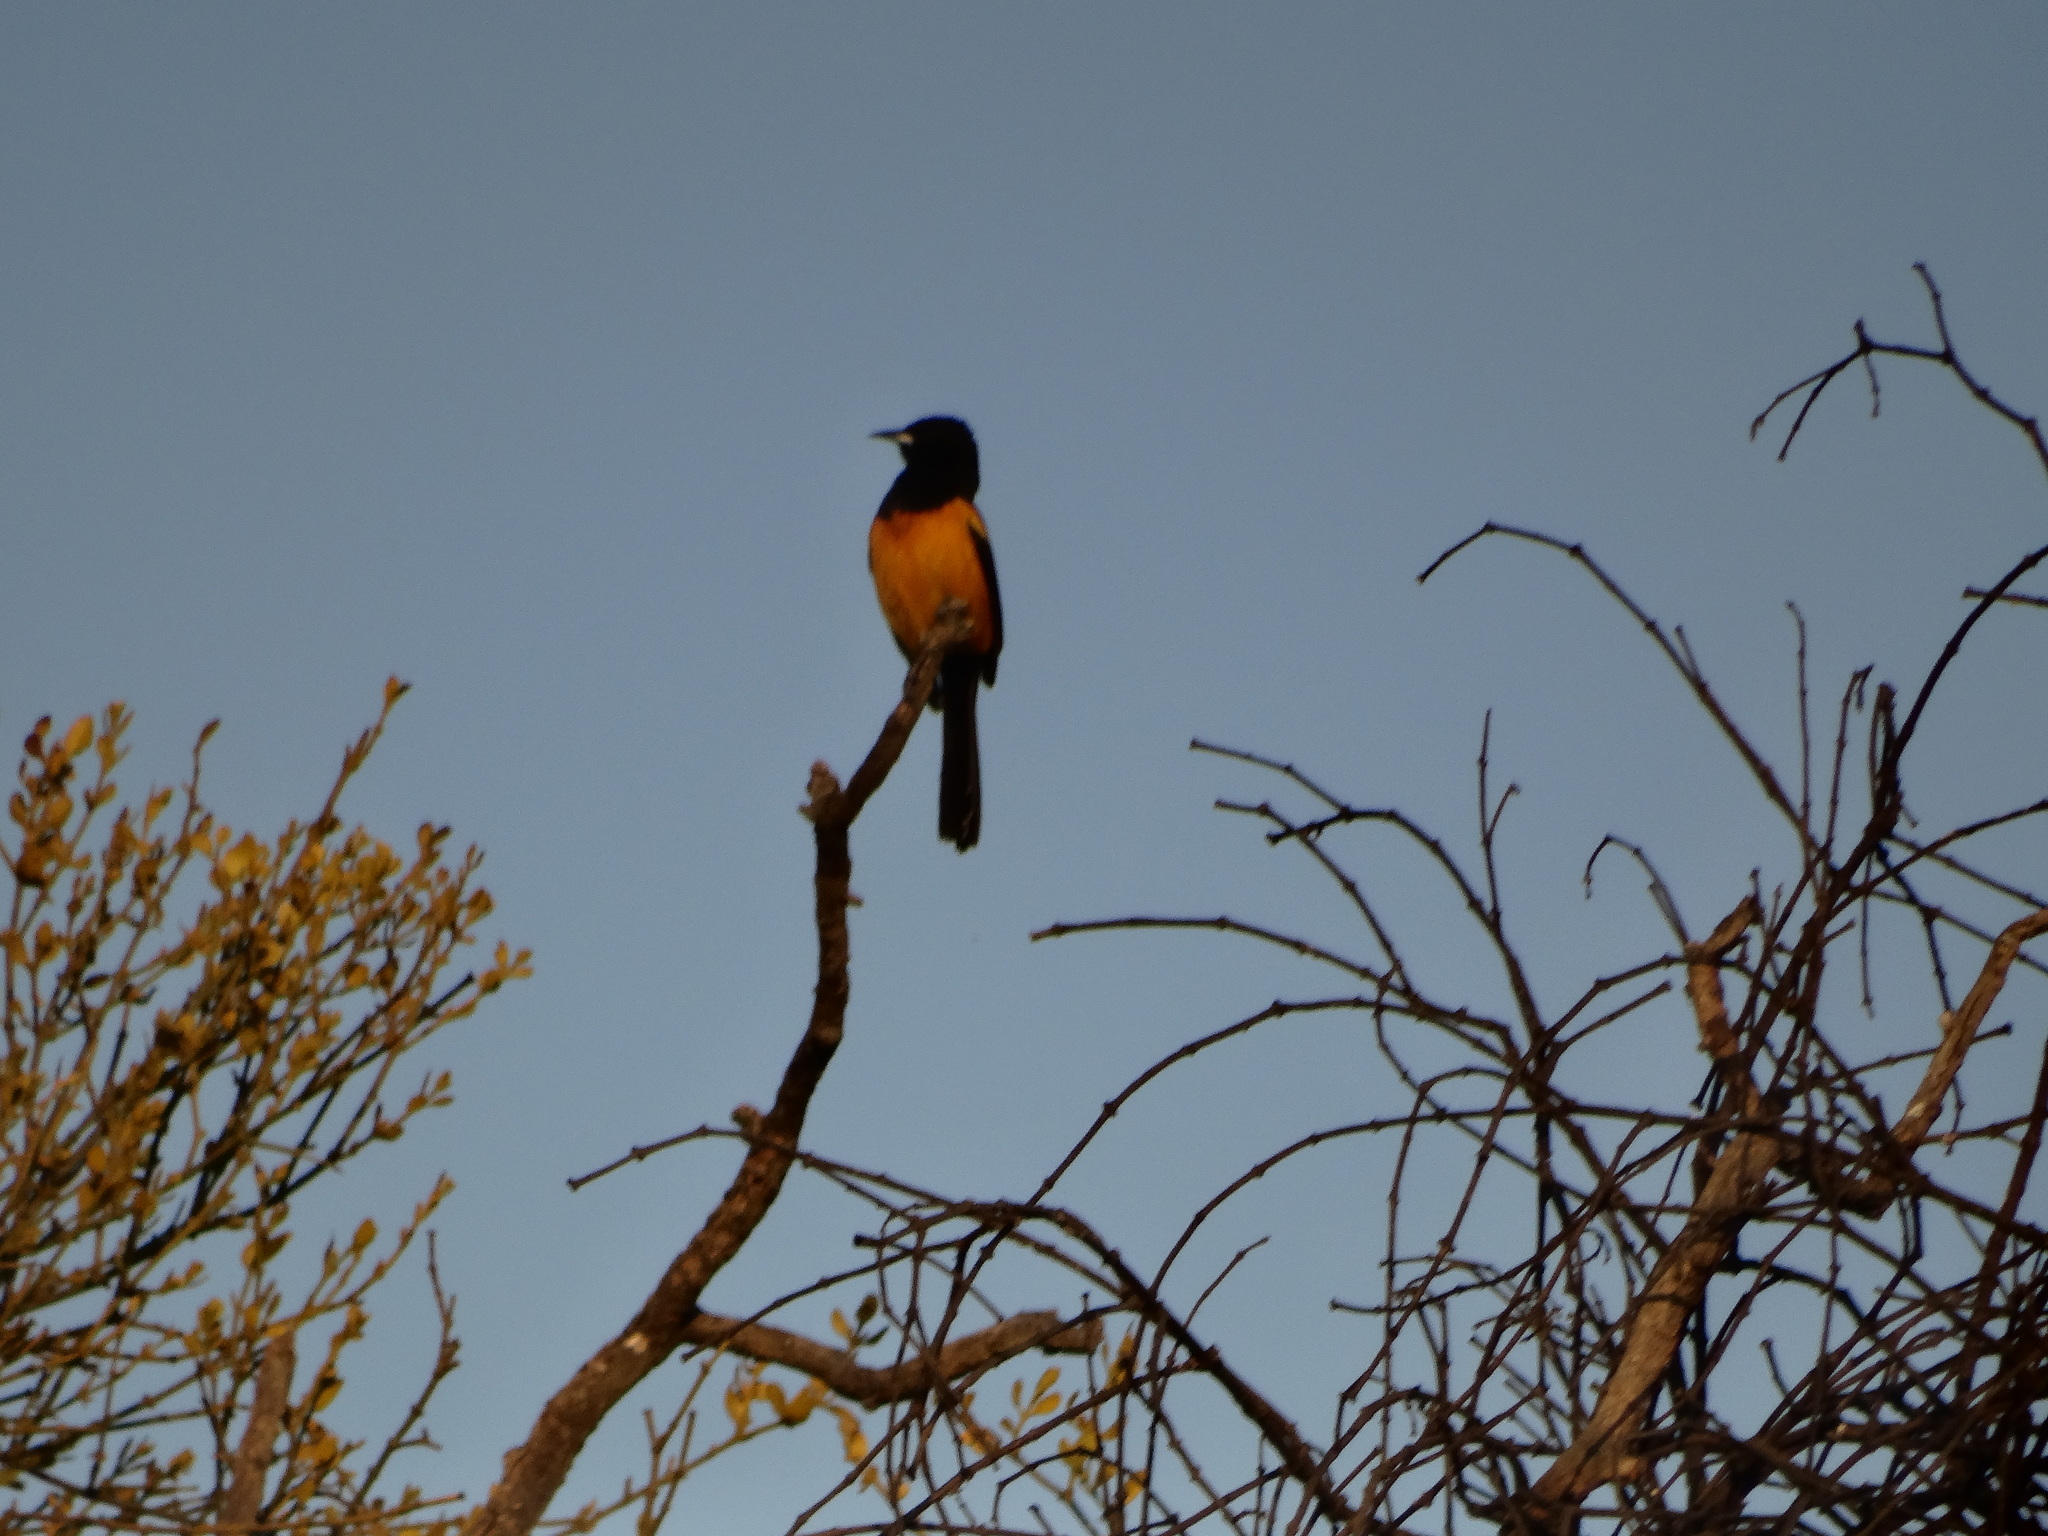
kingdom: Animalia
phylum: Chordata
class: Aves
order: Passeriformes
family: Icteridae
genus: Icterus
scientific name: Icterus wagleri
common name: Black-vented oriole
